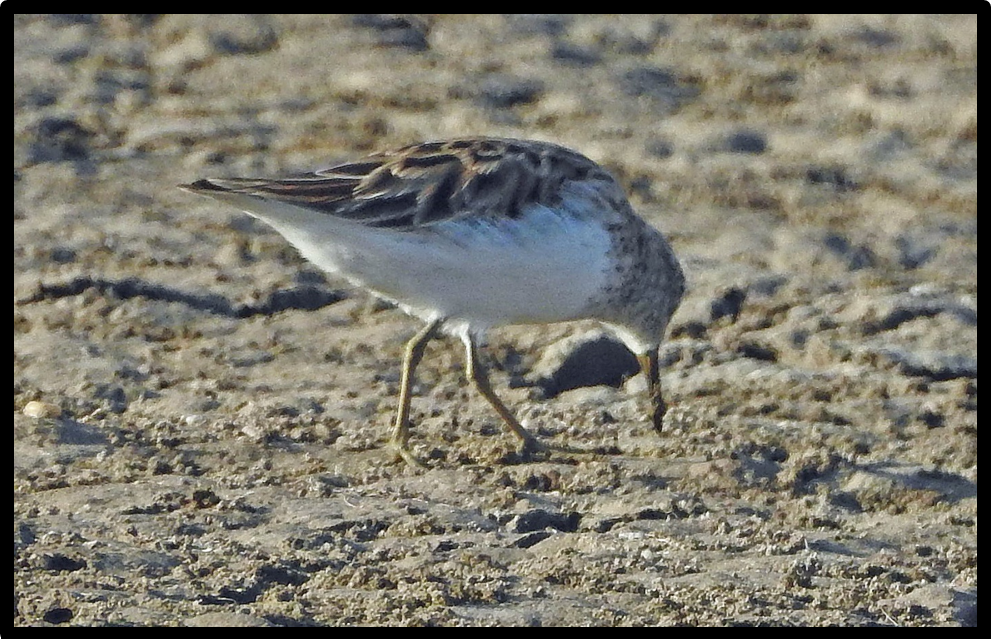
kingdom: Animalia
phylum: Chordata
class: Aves
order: Charadriiformes
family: Scolopacidae
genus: Calidris
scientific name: Calidris minutilla
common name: Least sandpiper
